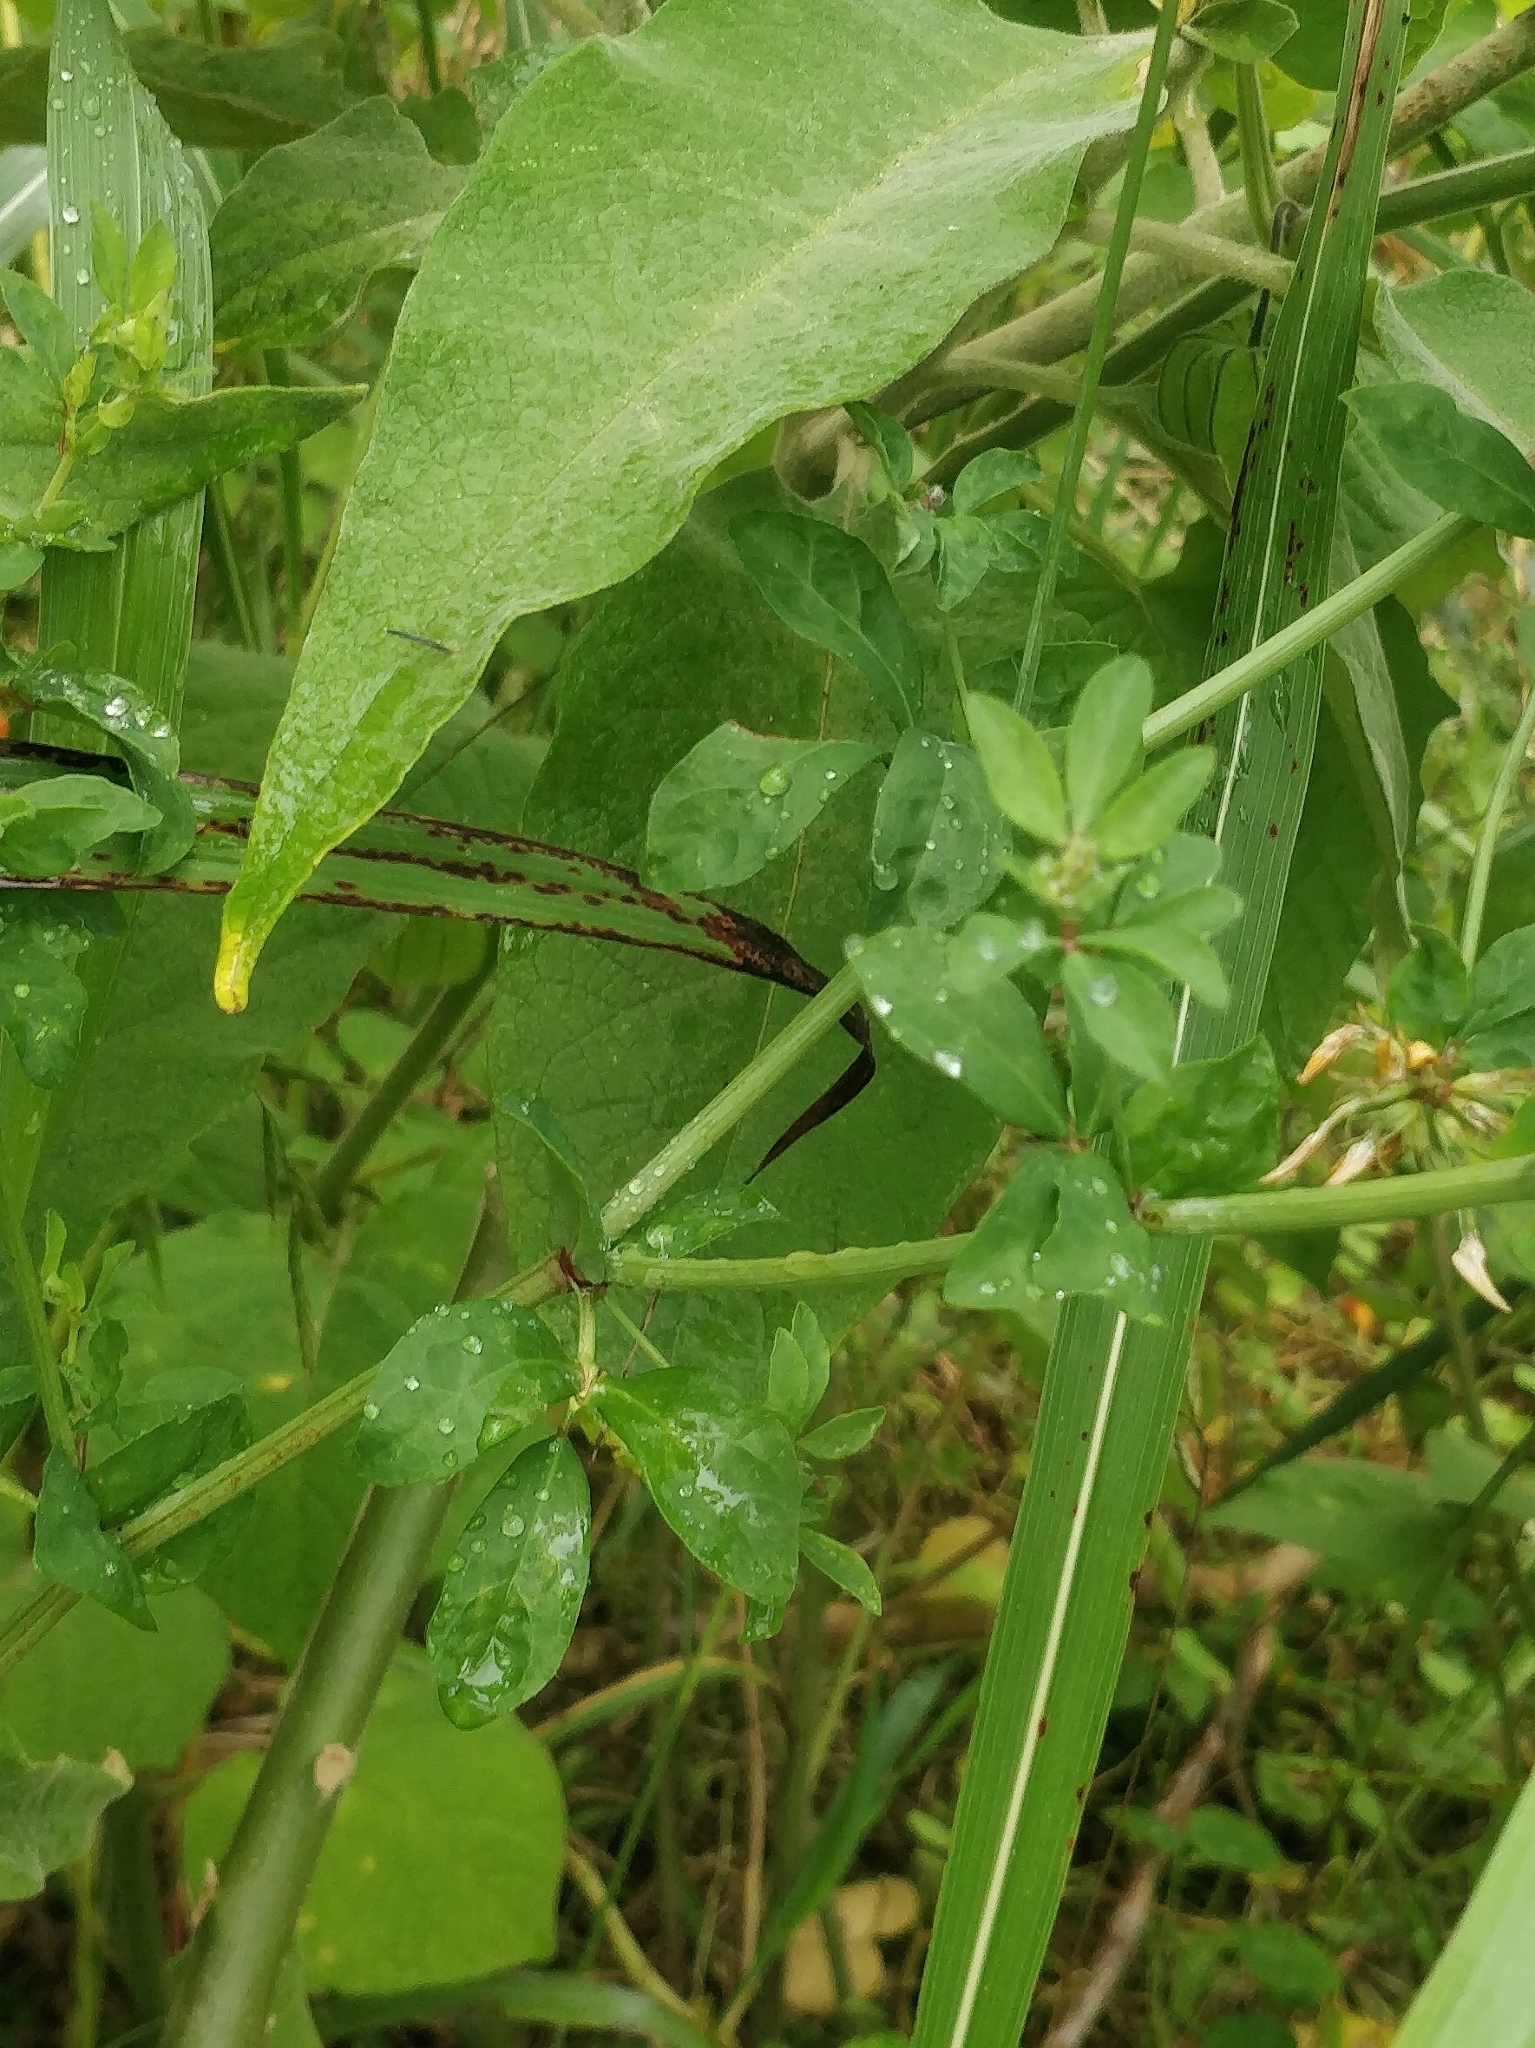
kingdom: Plantae
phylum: Tracheophyta
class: Magnoliopsida
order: Fabales
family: Fabaceae
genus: Lotus
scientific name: Lotus pedunculatus
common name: Greater birdsfoot-trefoil
